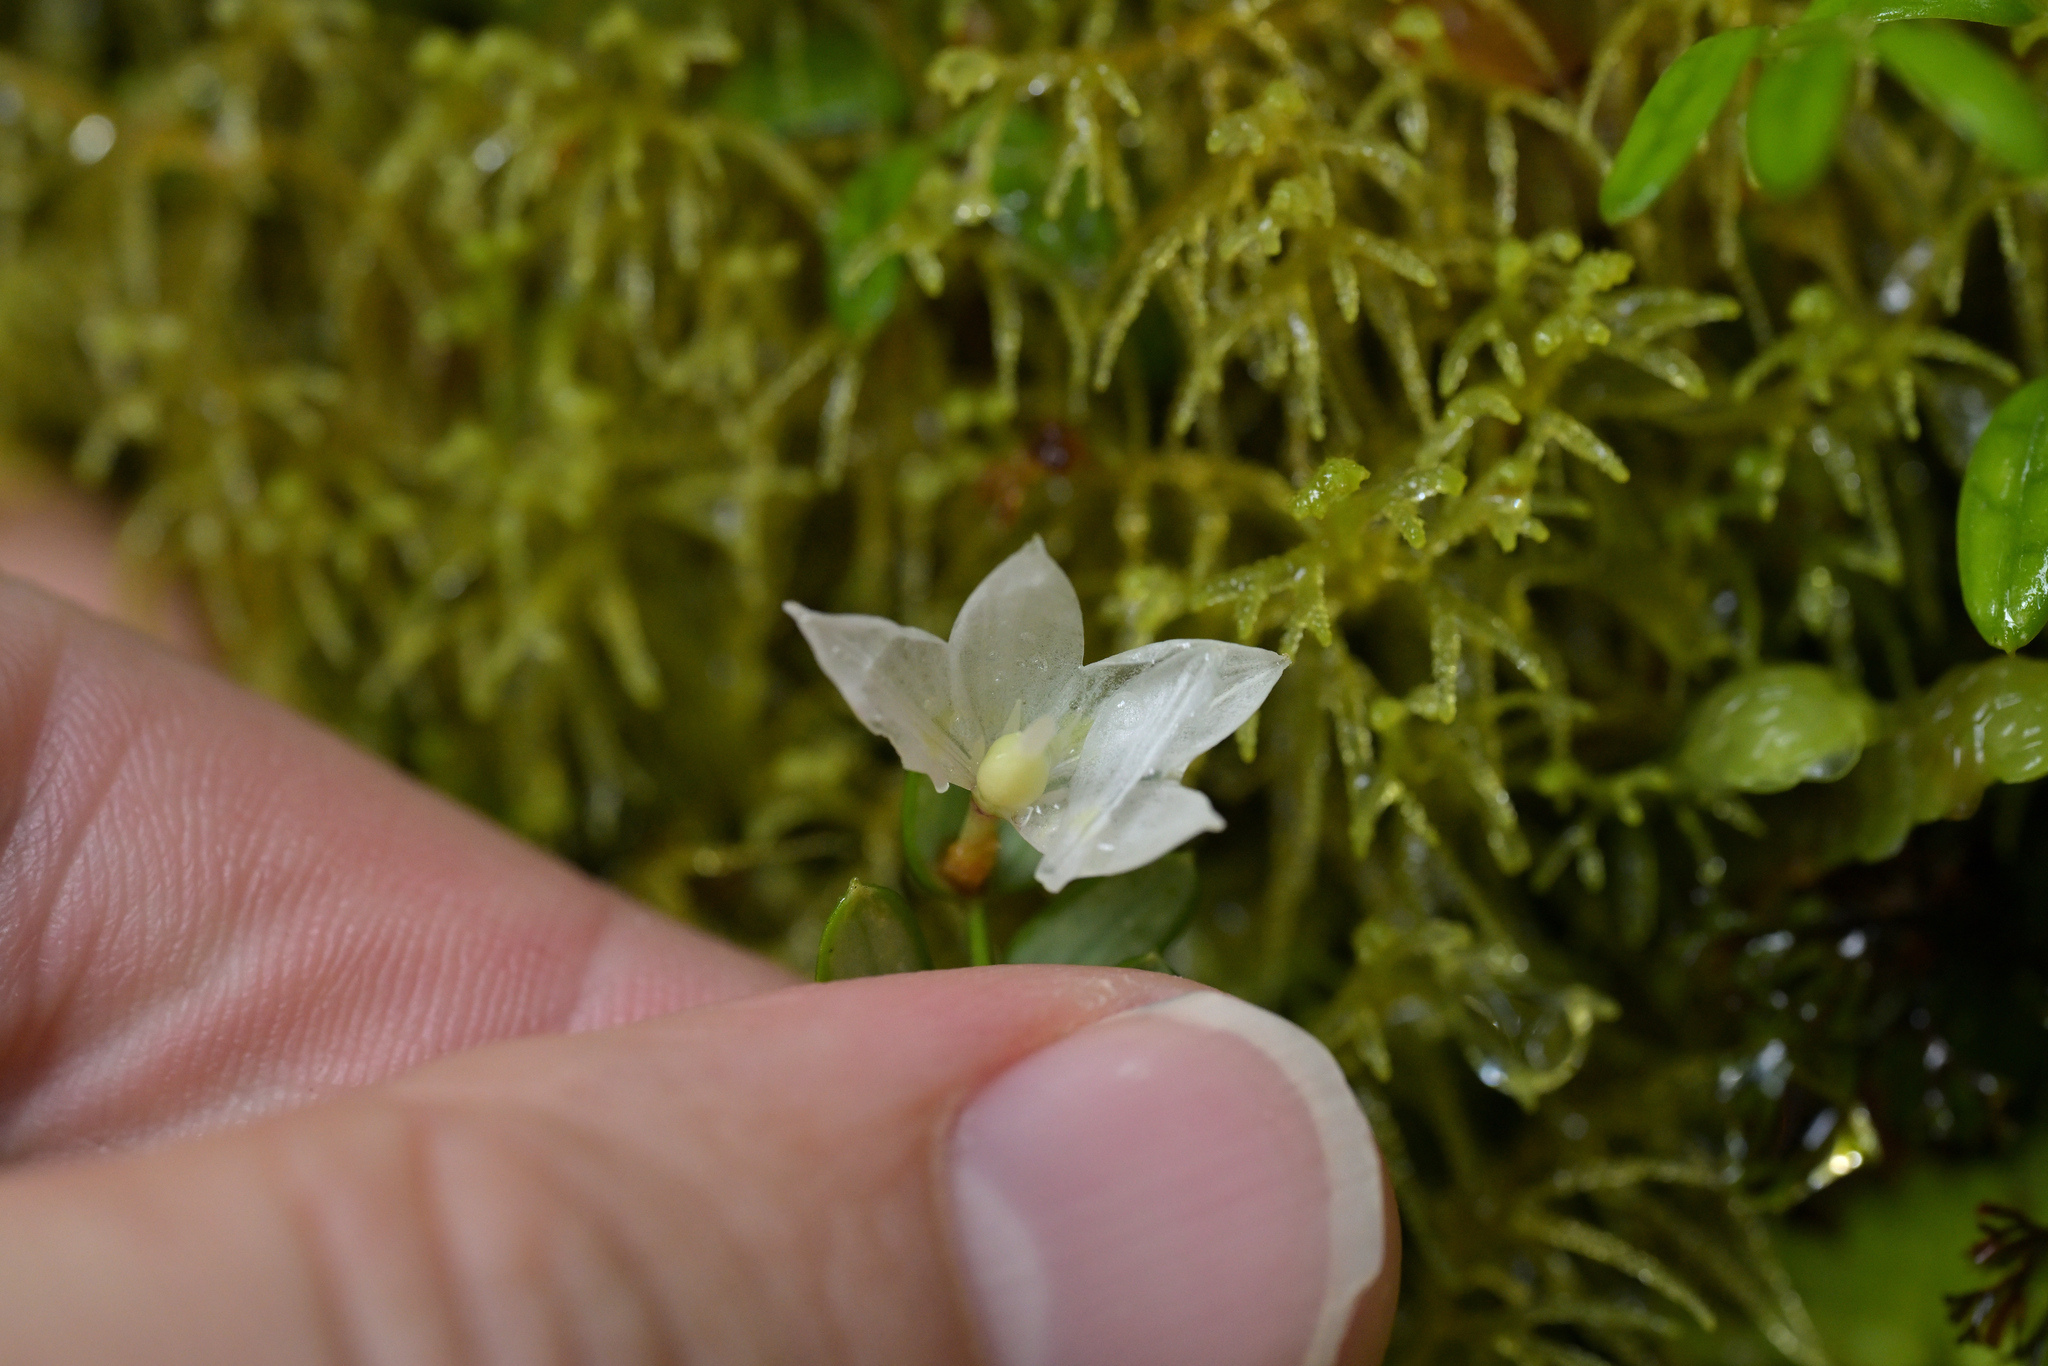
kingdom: Plantae
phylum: Tracheophyta
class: Liliopsida
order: Liliales
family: Alstroemeriaceae
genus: Luzuriaga
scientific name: Luzuriaga parviflora
